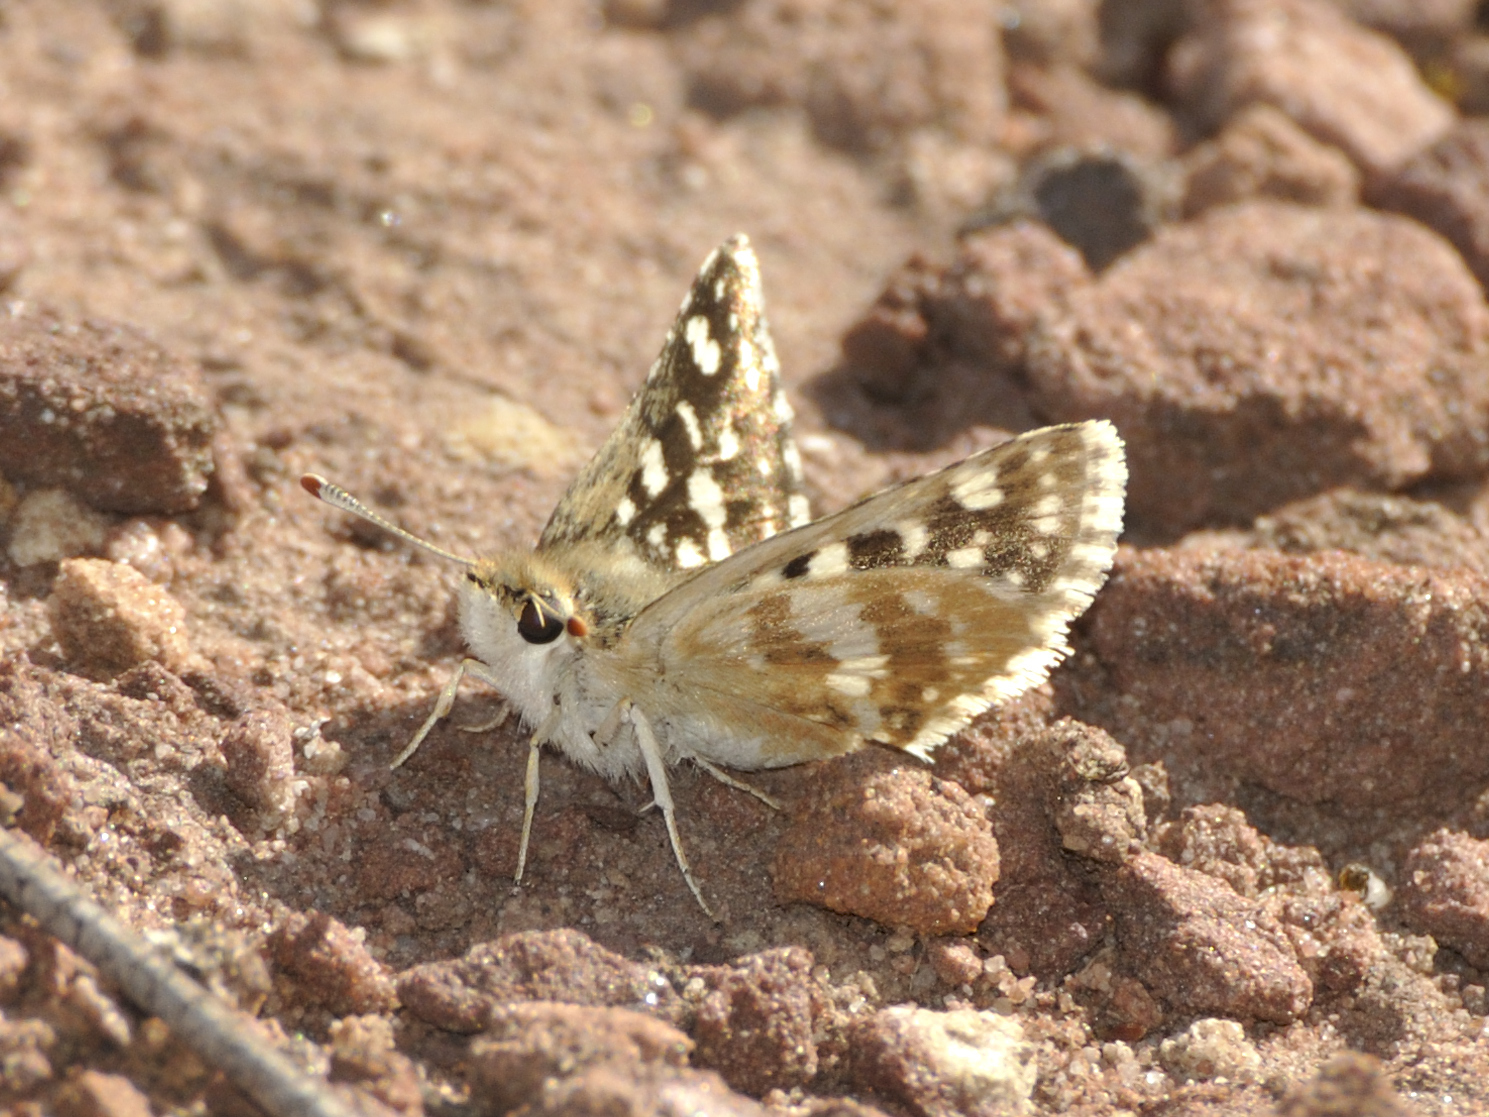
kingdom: Animalia
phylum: Arthropoda
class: Insecta
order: Lepidoptera
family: Hesperiidae
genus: Spialia
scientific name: Spialia diomus
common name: Common sandman
